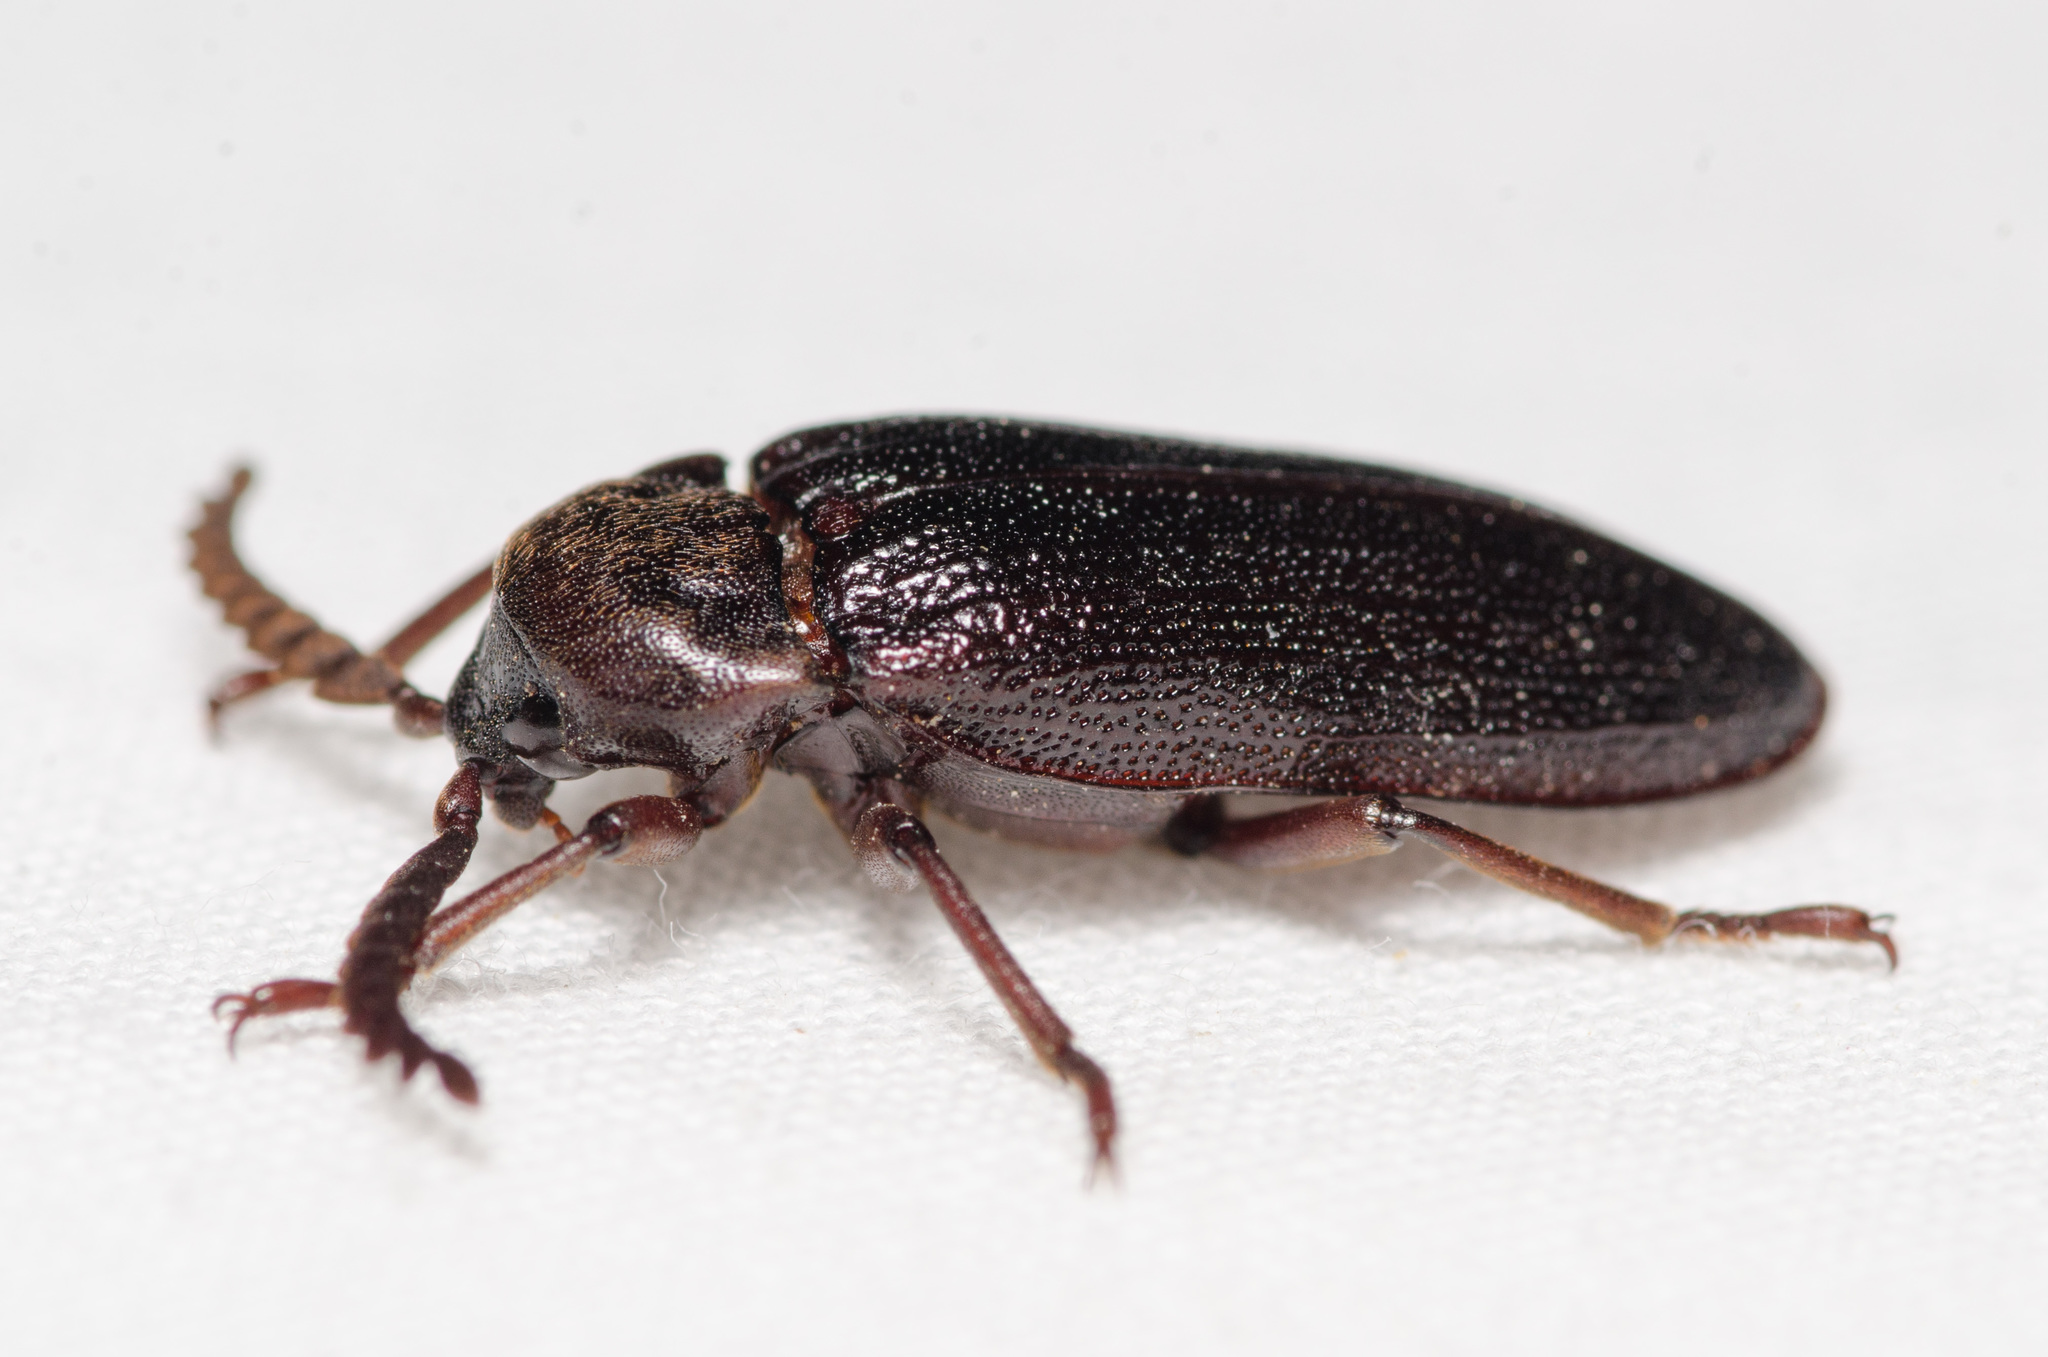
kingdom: Animalia
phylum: Arthropoda
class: Insecta
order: Coleoptera
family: Callirhipidae
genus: Zenoa
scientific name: Zenoa picea
